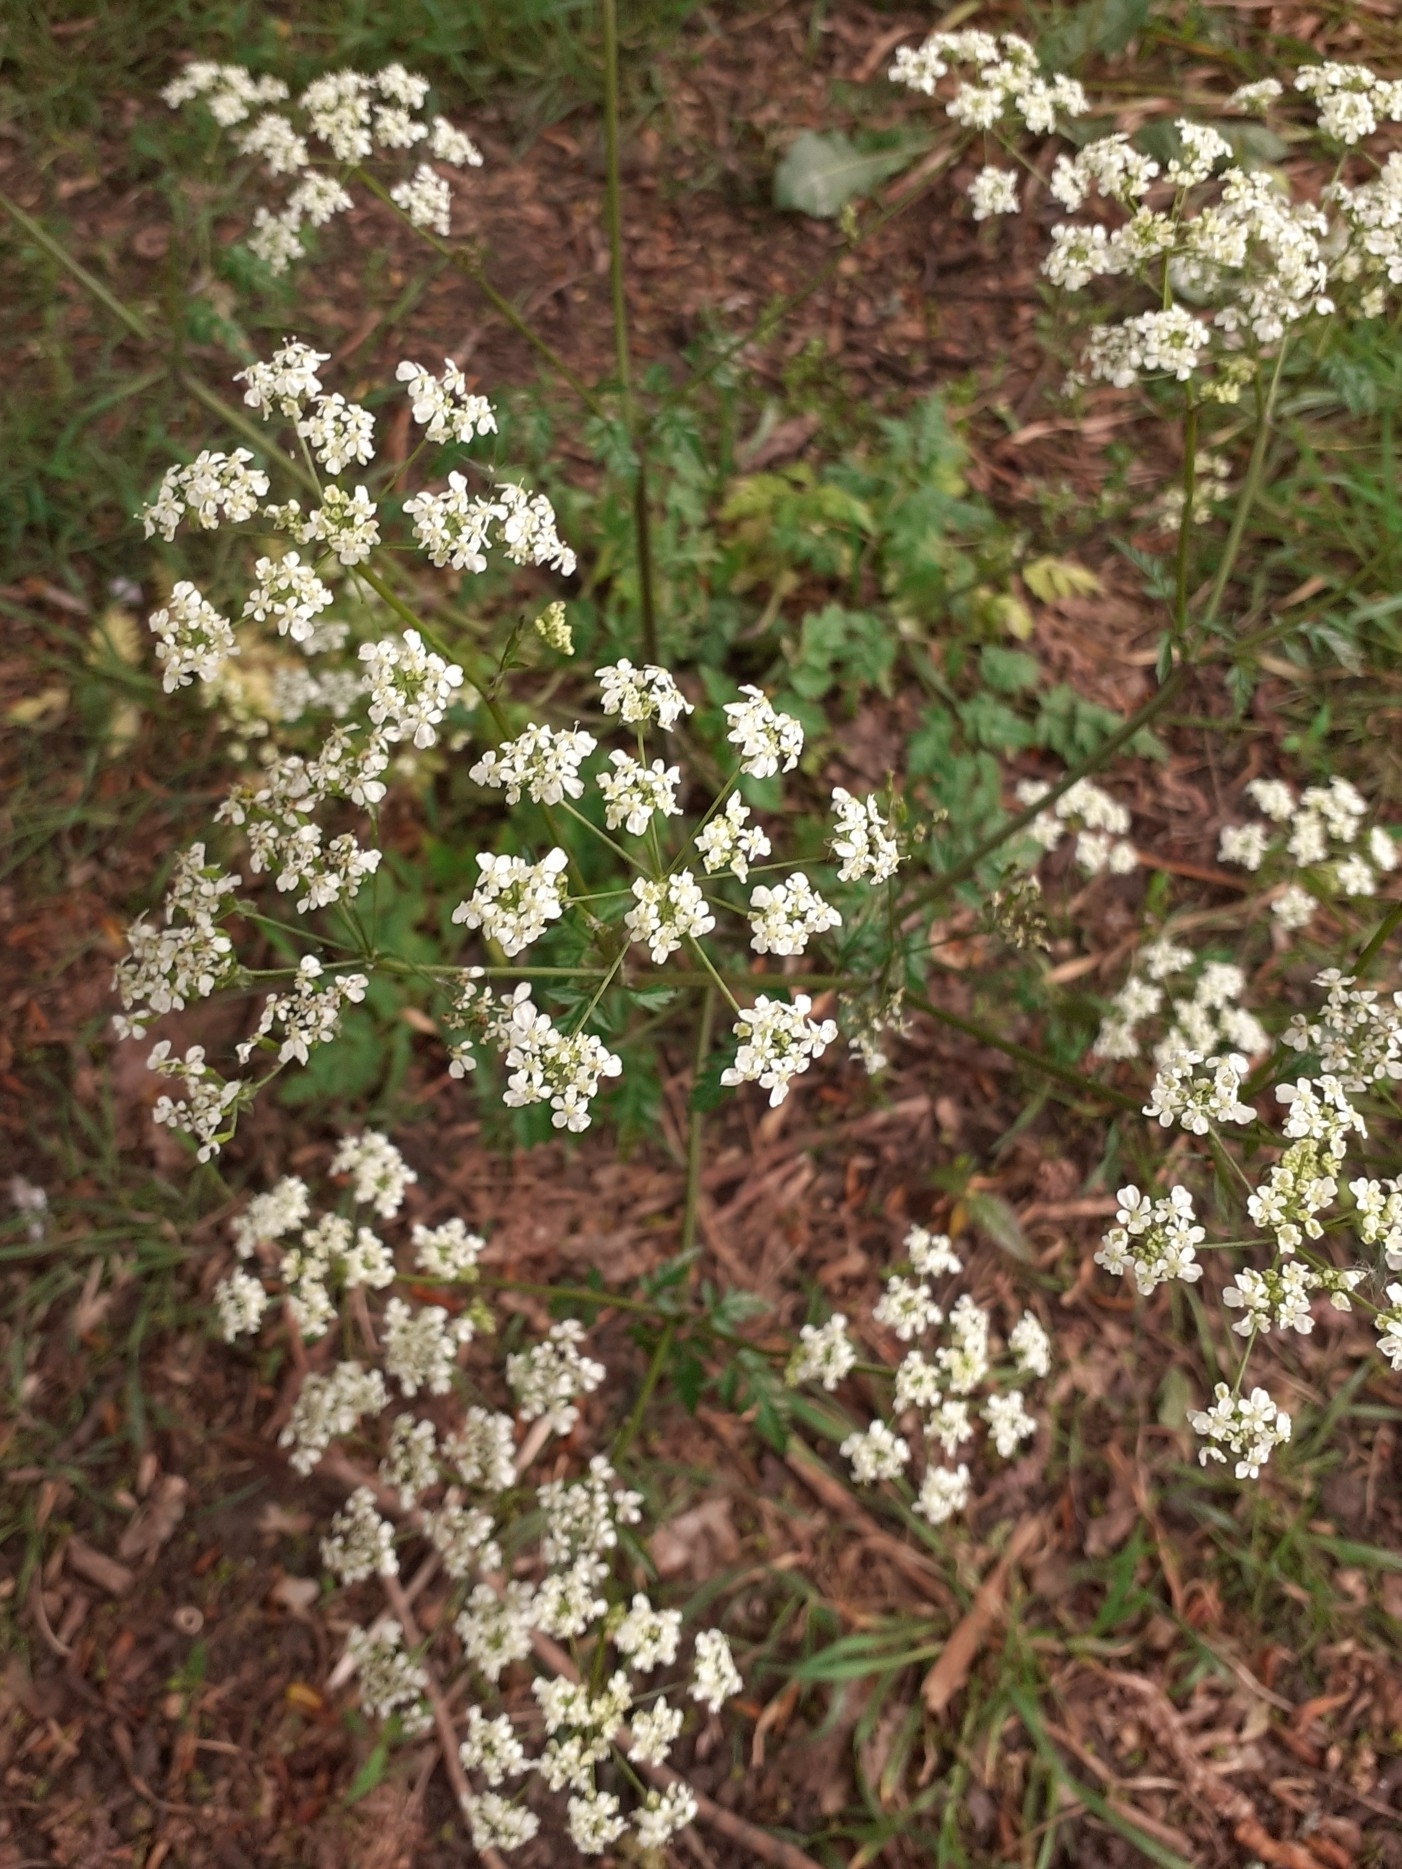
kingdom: Plantae
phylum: Tracheophyta
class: Magnoliopsida
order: Apiales
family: Apiaceae
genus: Anthriscus
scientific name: Anthriscus sylvestris
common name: Cow parsley
